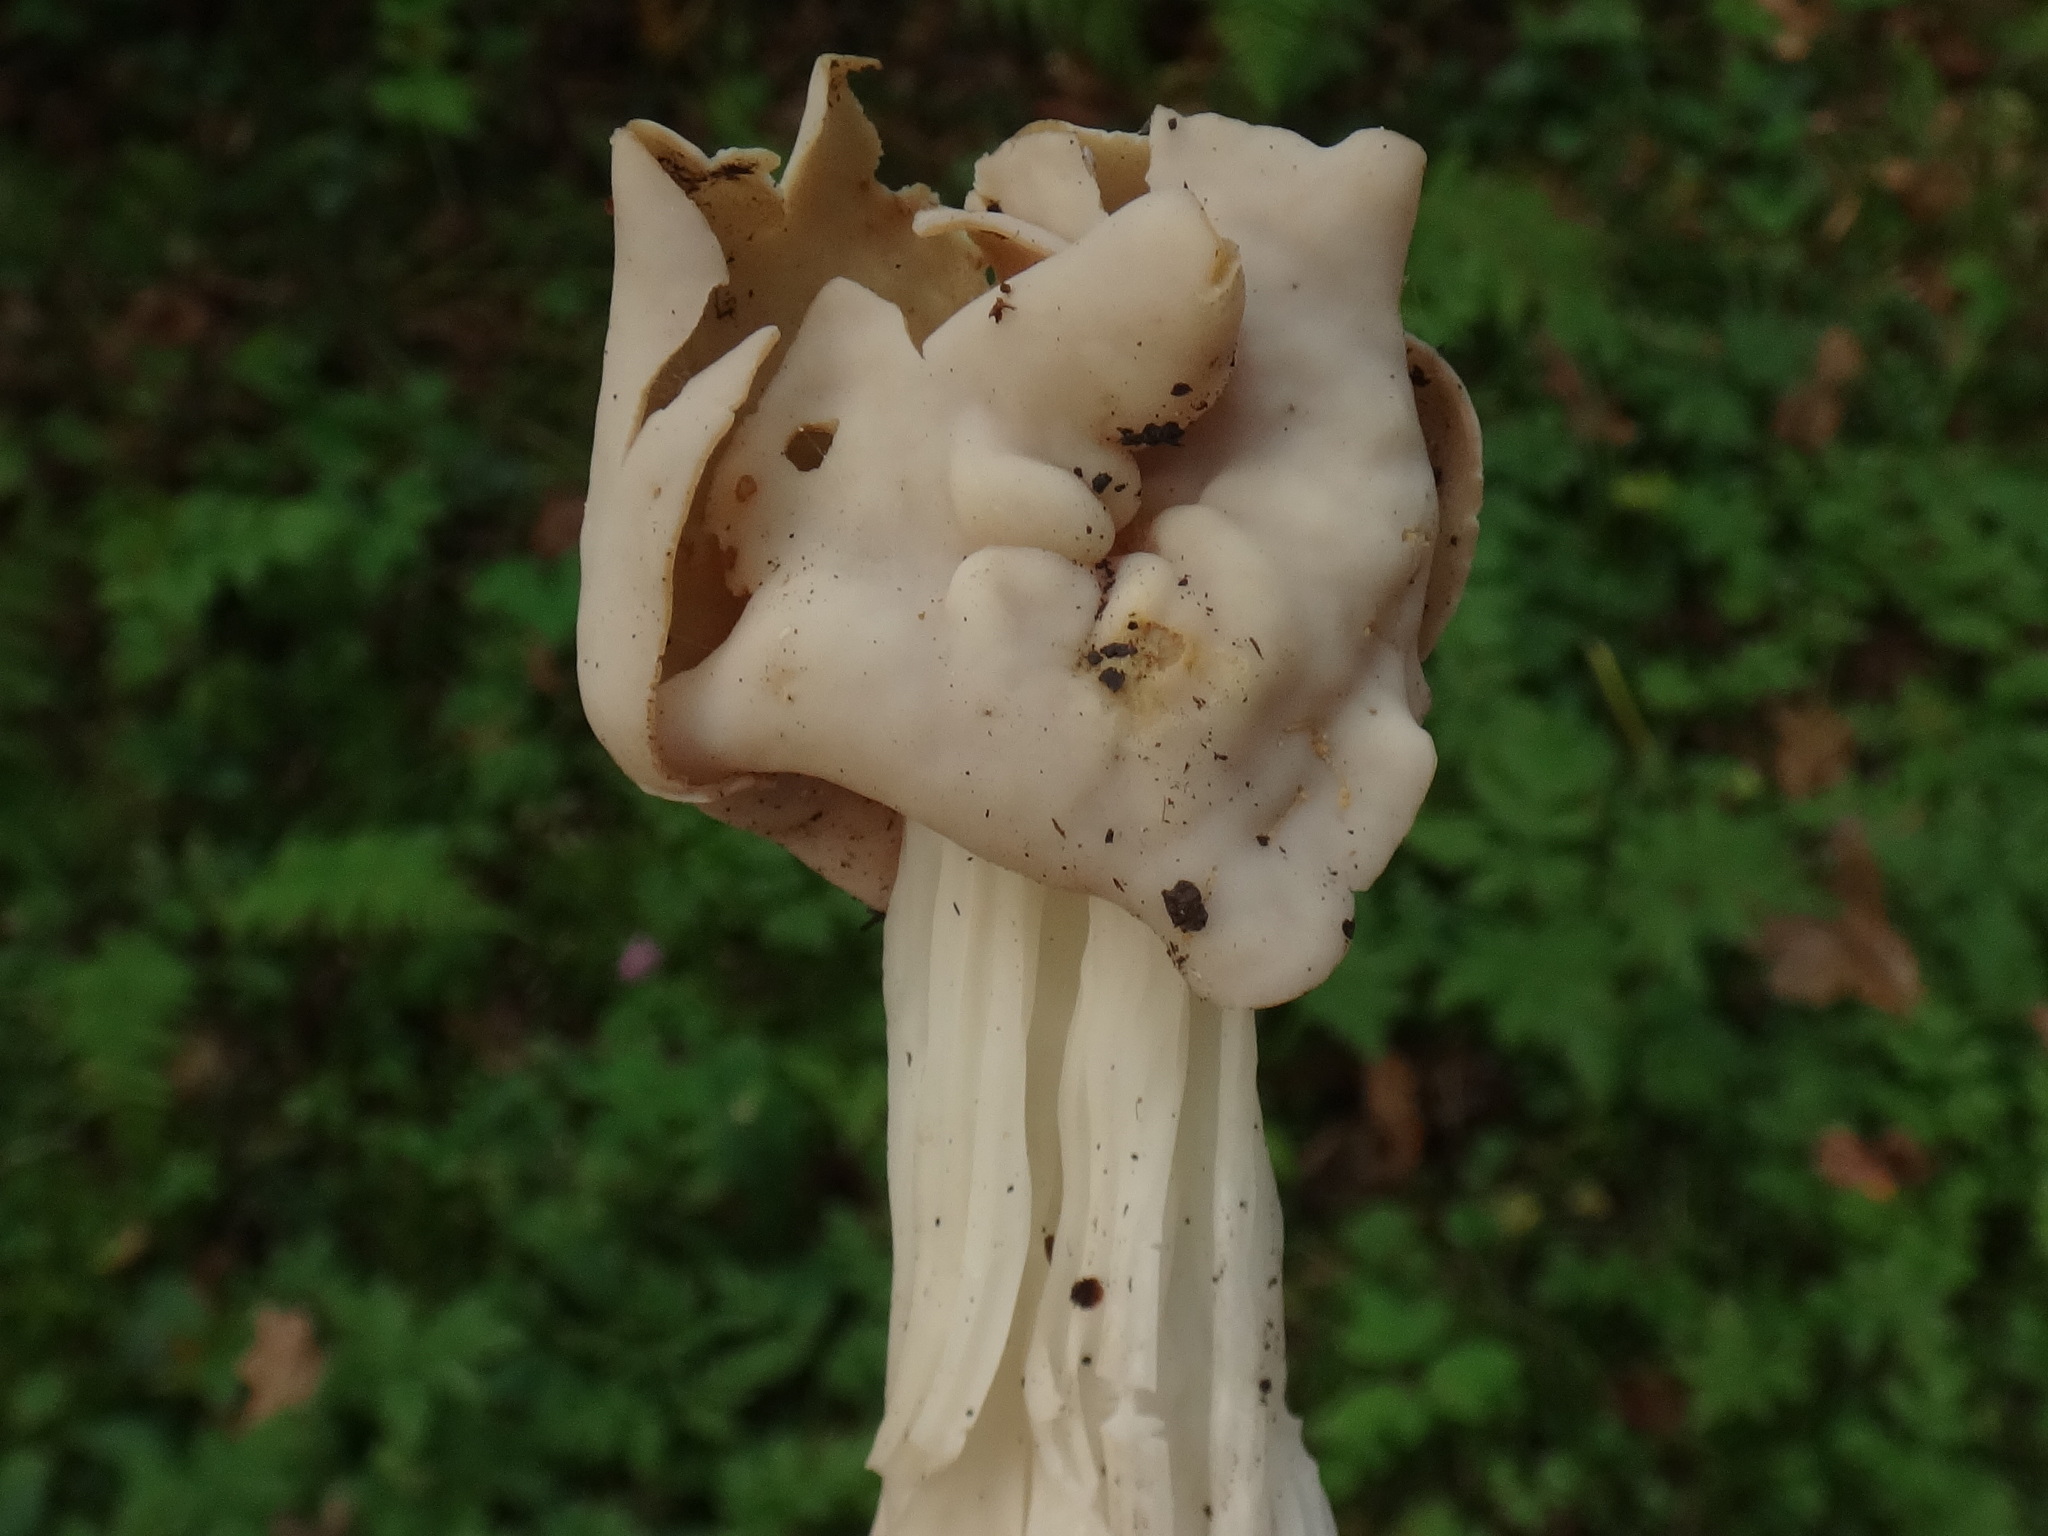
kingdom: Fungi
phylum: Ascomycota
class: Pezizomycetes
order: Pezizales
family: Helvellaceae
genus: Helvella
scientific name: Helvella crispa
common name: White saddle
